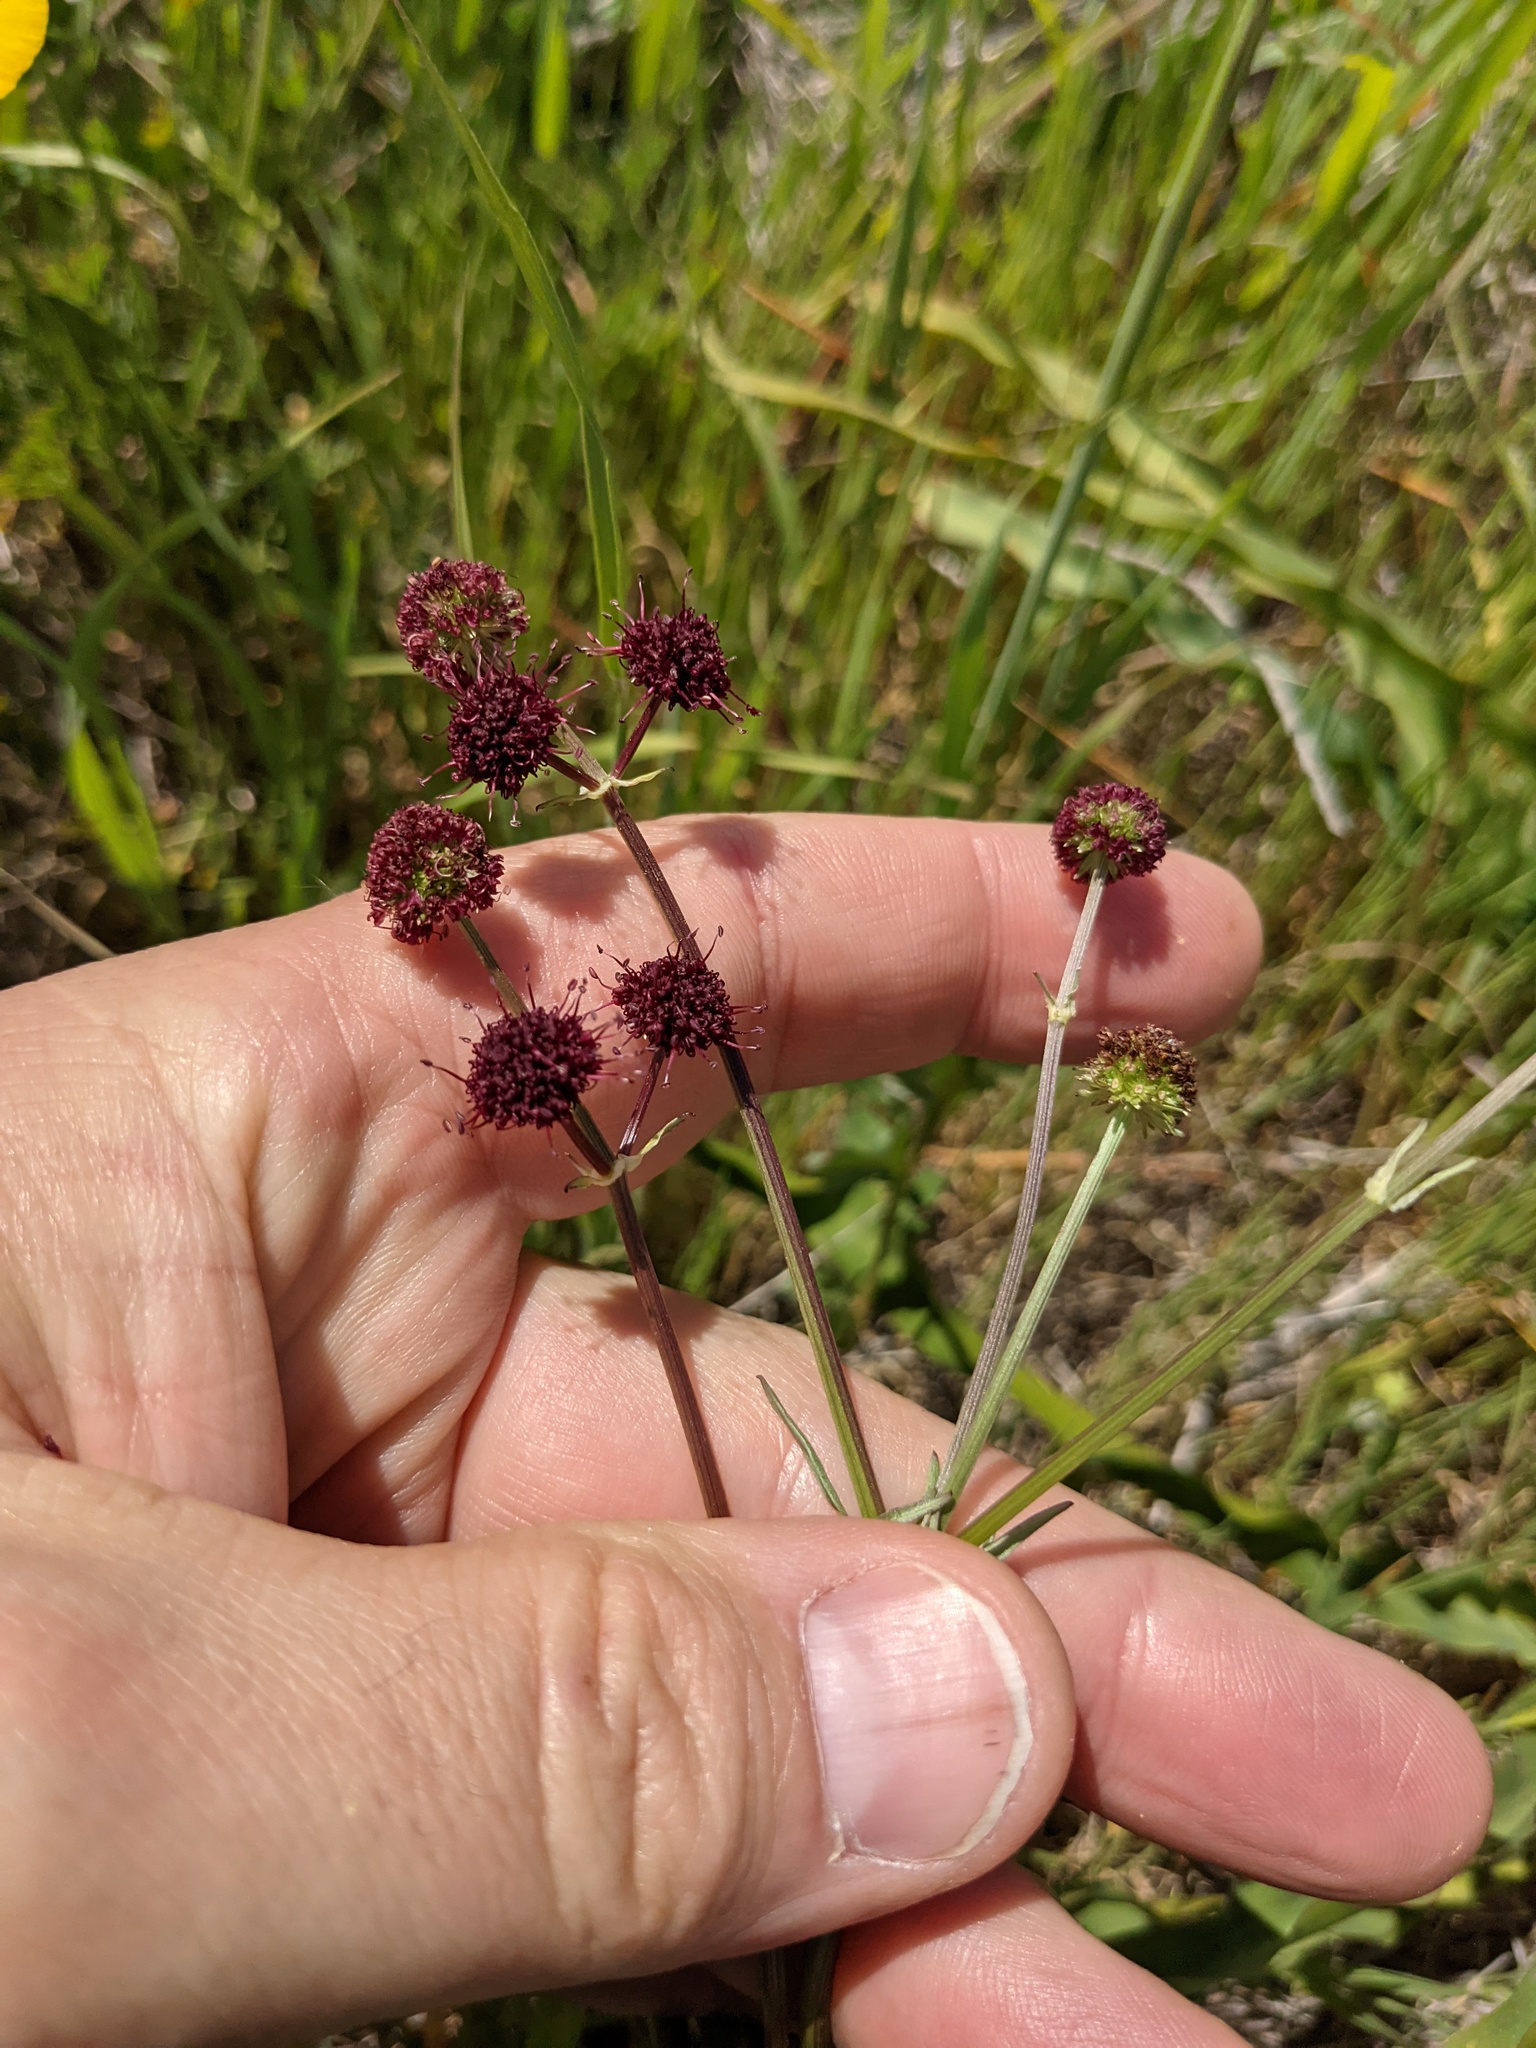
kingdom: Plantae
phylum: Tracheophyta
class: Magnoliopsida
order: Apiales
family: Apiaceae
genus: Sanicula
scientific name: Sanicula bipinnatifida
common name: Shoe-buttons
